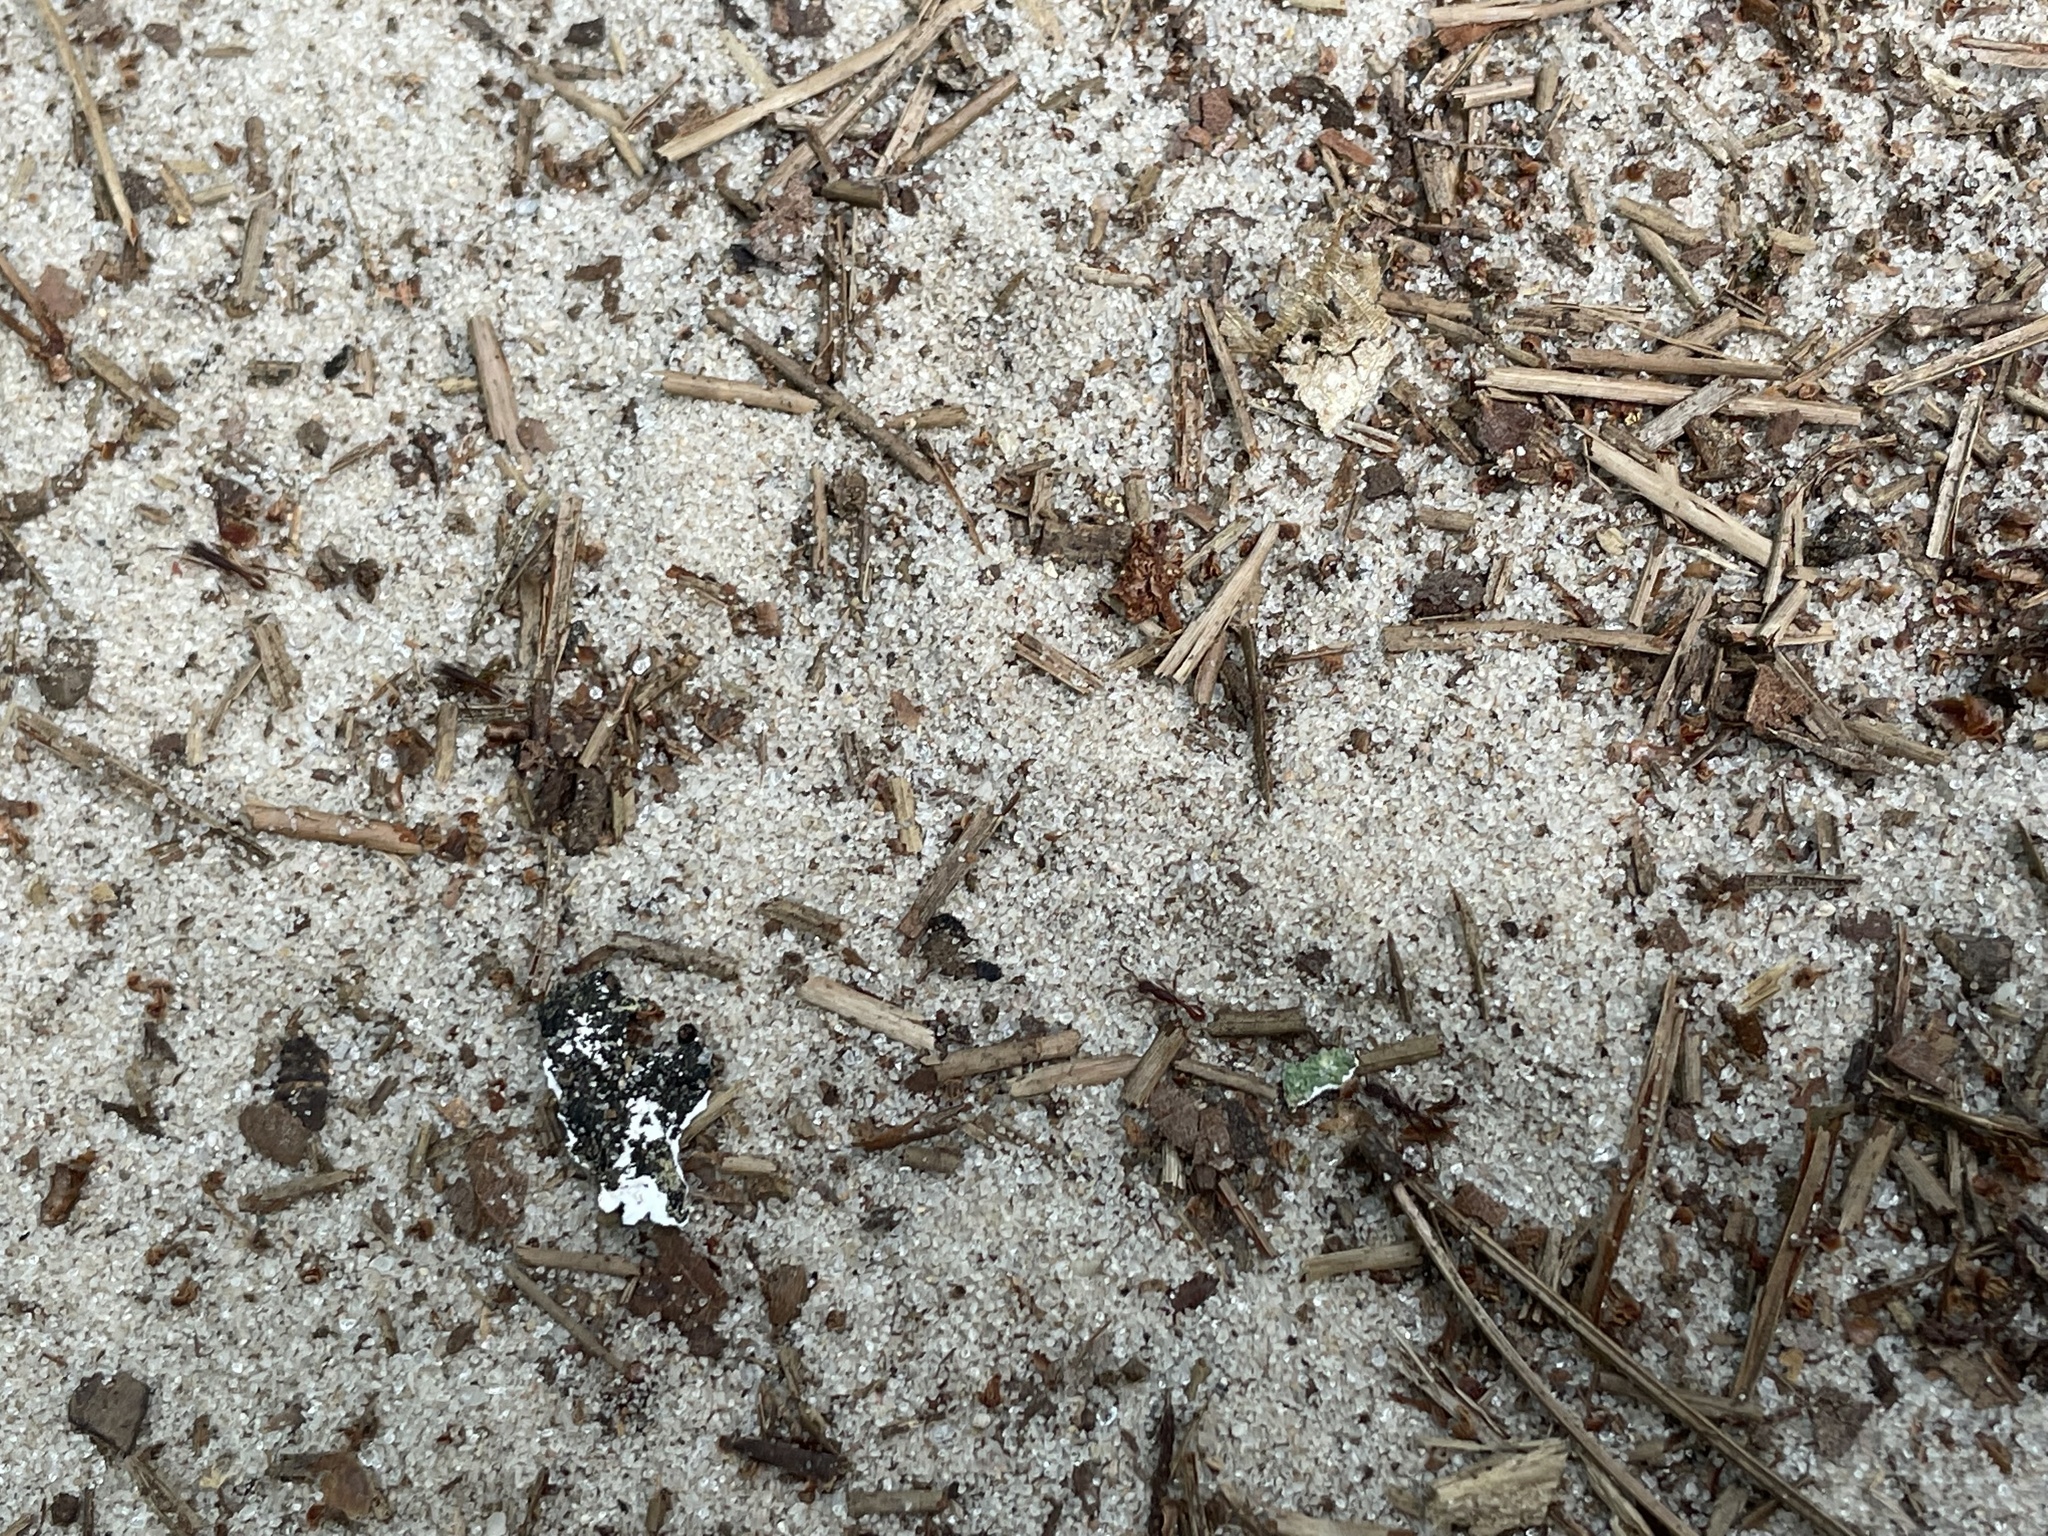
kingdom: Animalia
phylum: Arthropoda
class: Insecta
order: Hymenoptera
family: Formicidae
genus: Leptogenys
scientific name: Leptogenys elongata
